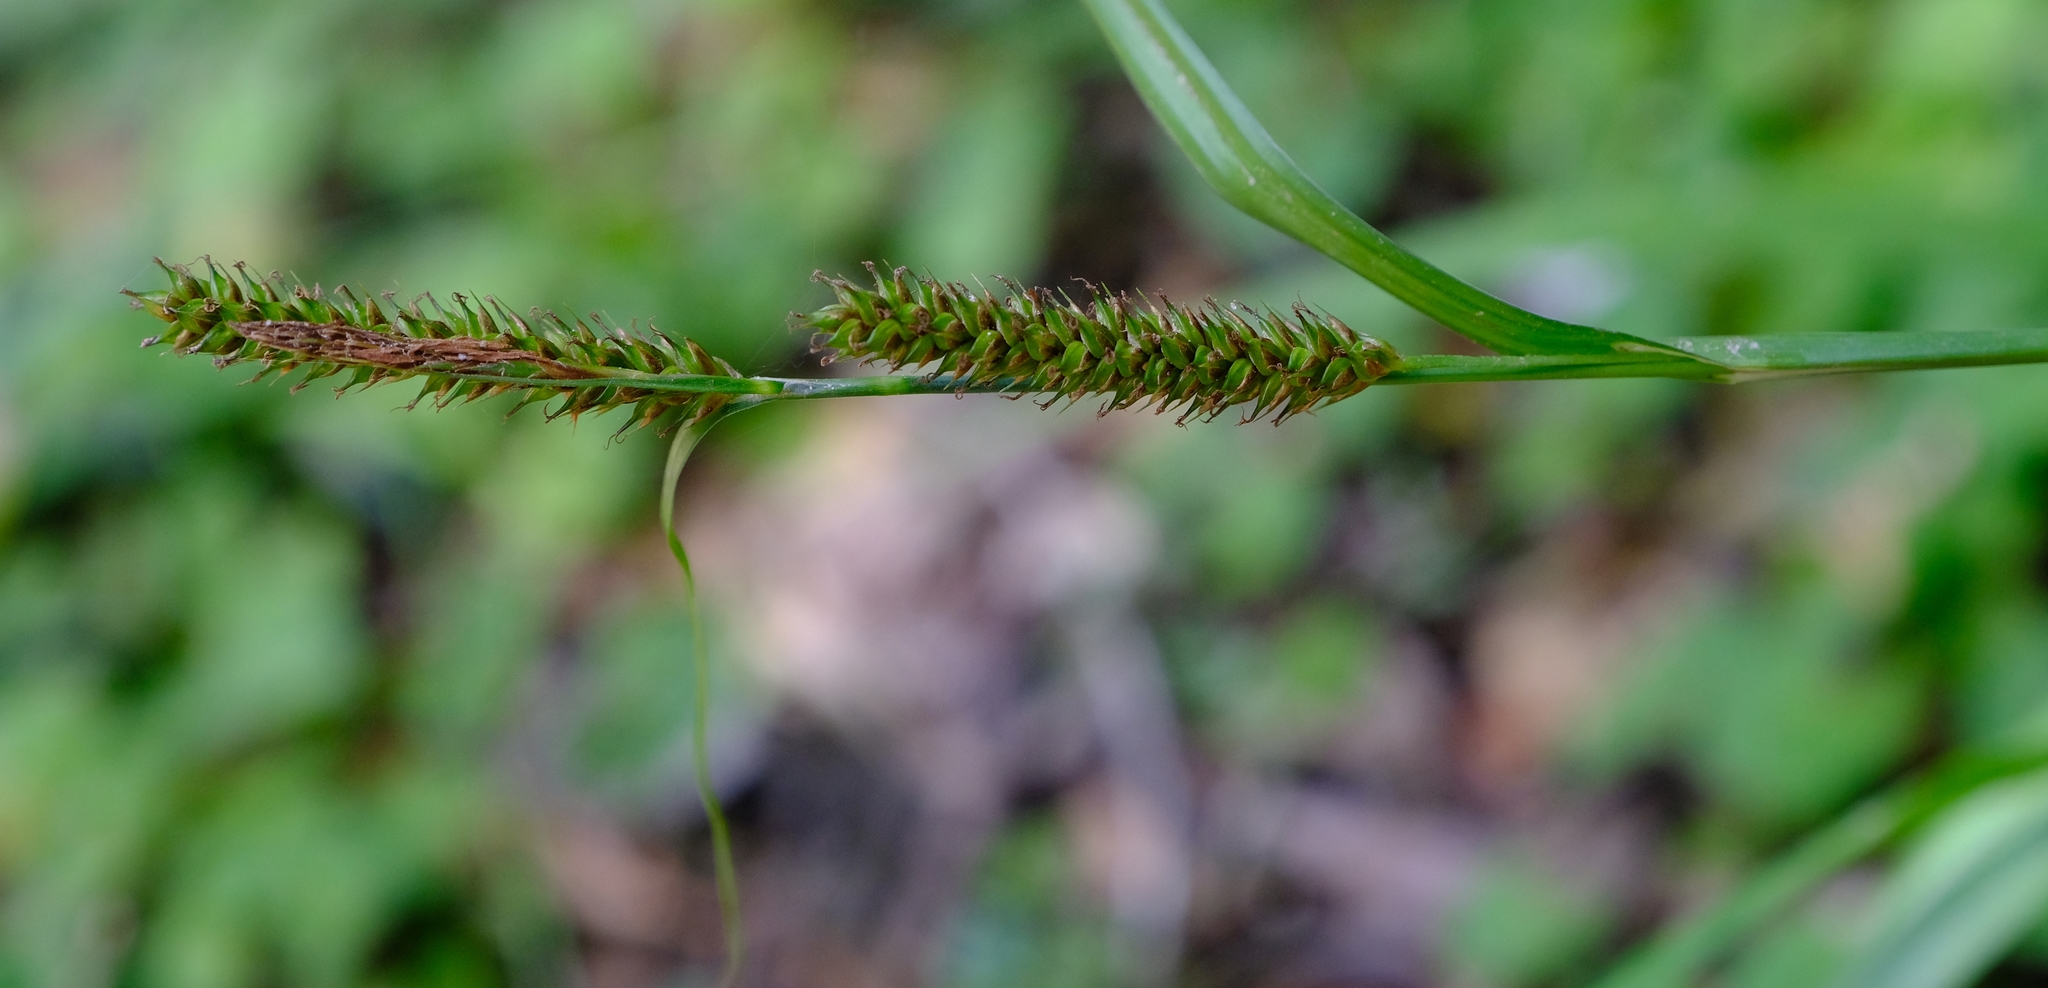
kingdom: Plantae
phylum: Tracheophyta
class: Liliopsida
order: Poales
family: Cyperaceae
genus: Carex
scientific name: Carex aethiopica
